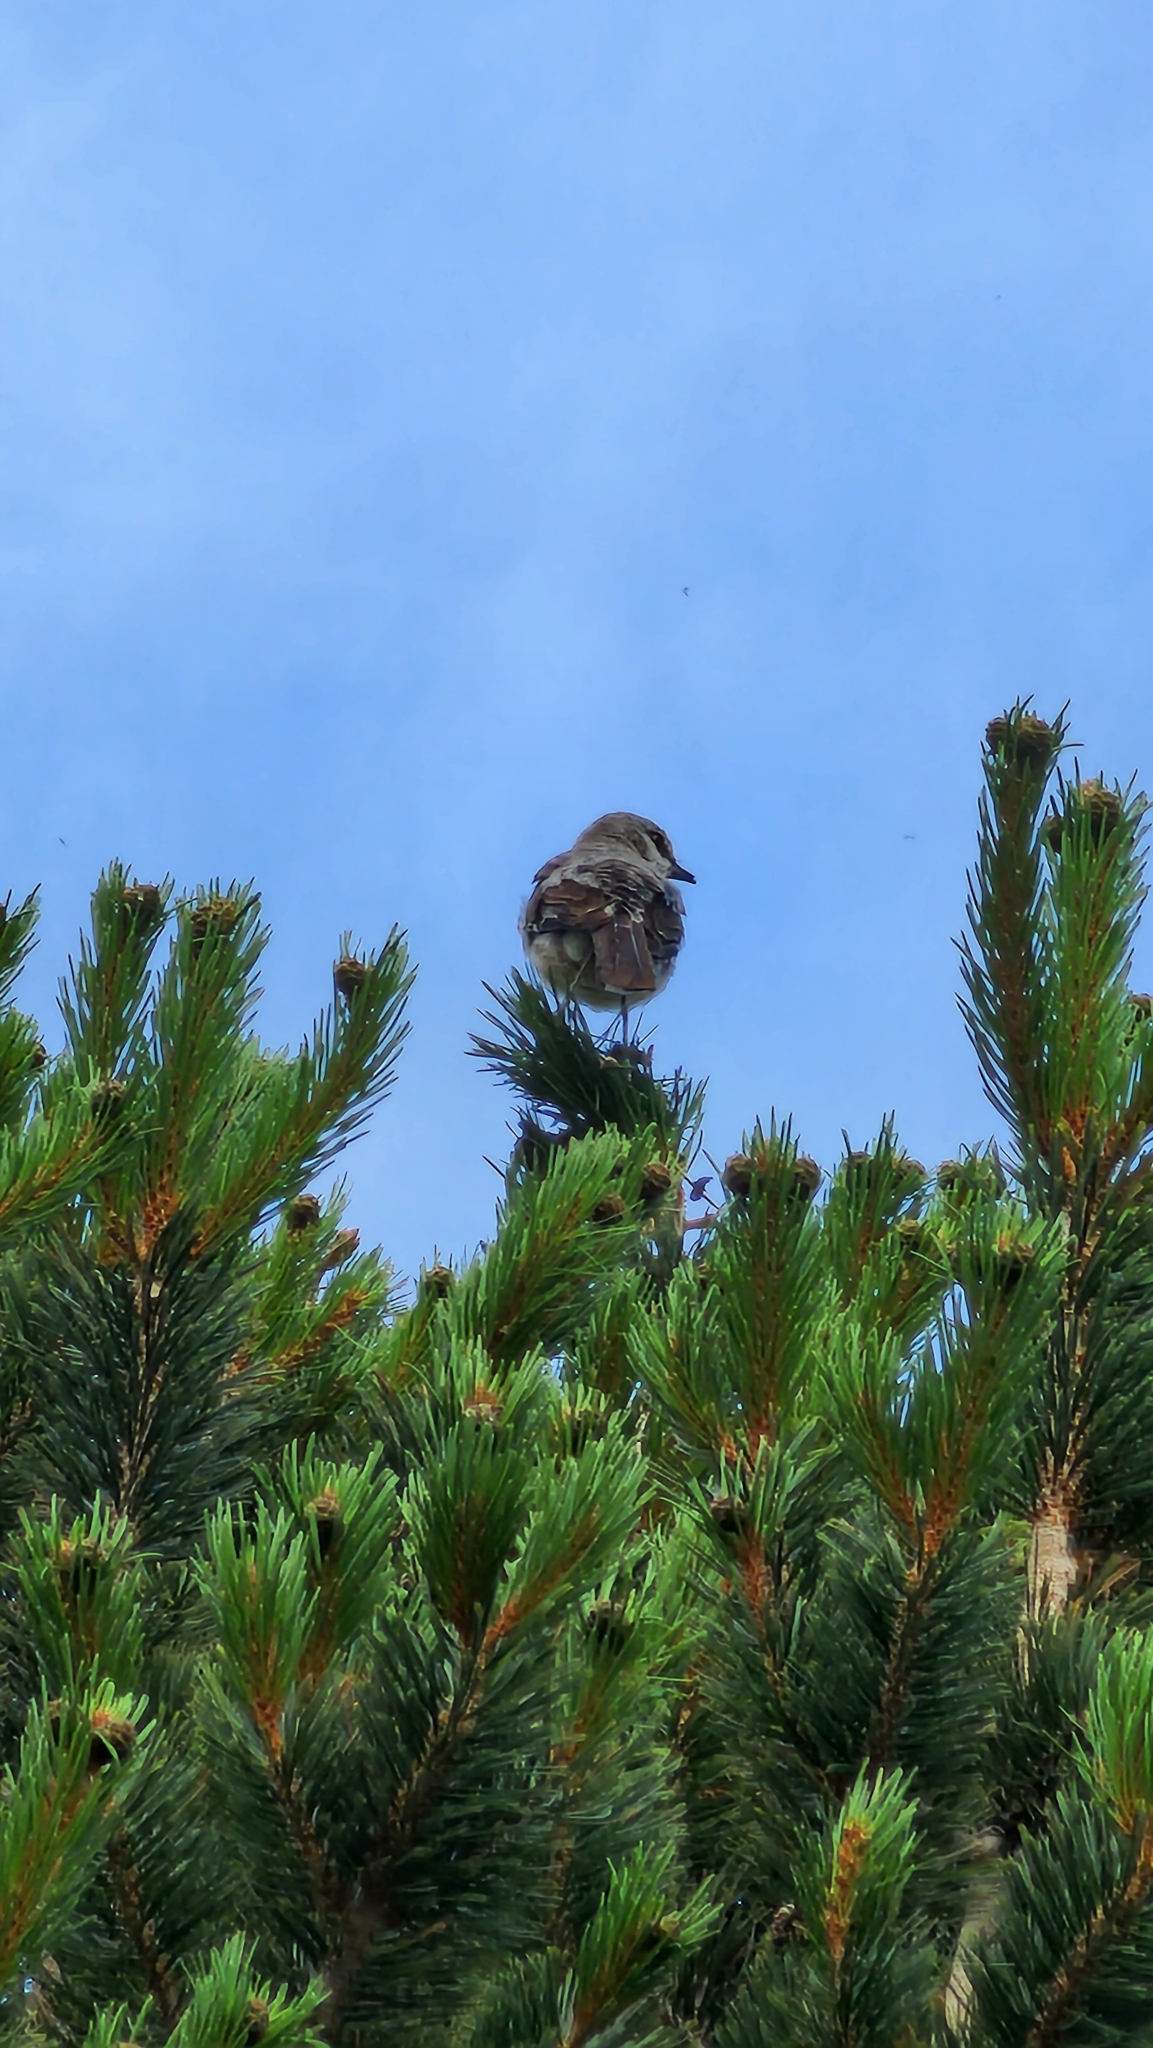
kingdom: Animalia
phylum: Chordata
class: Aves
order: Passeriformes
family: Mimidae
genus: Mimus
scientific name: Mimus polyglottos
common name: Northern mockingbird
